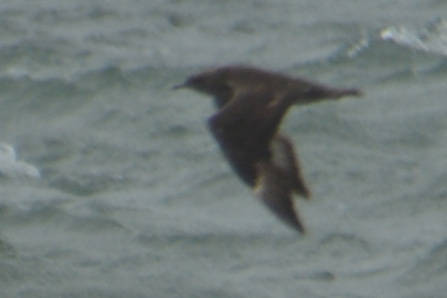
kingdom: Animalia
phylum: Chordata
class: Aves
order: Charadriiformes
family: Stercorariidae
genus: Stercorarius
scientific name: Stercorarius parasiticus
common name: Parasitic jaeger
